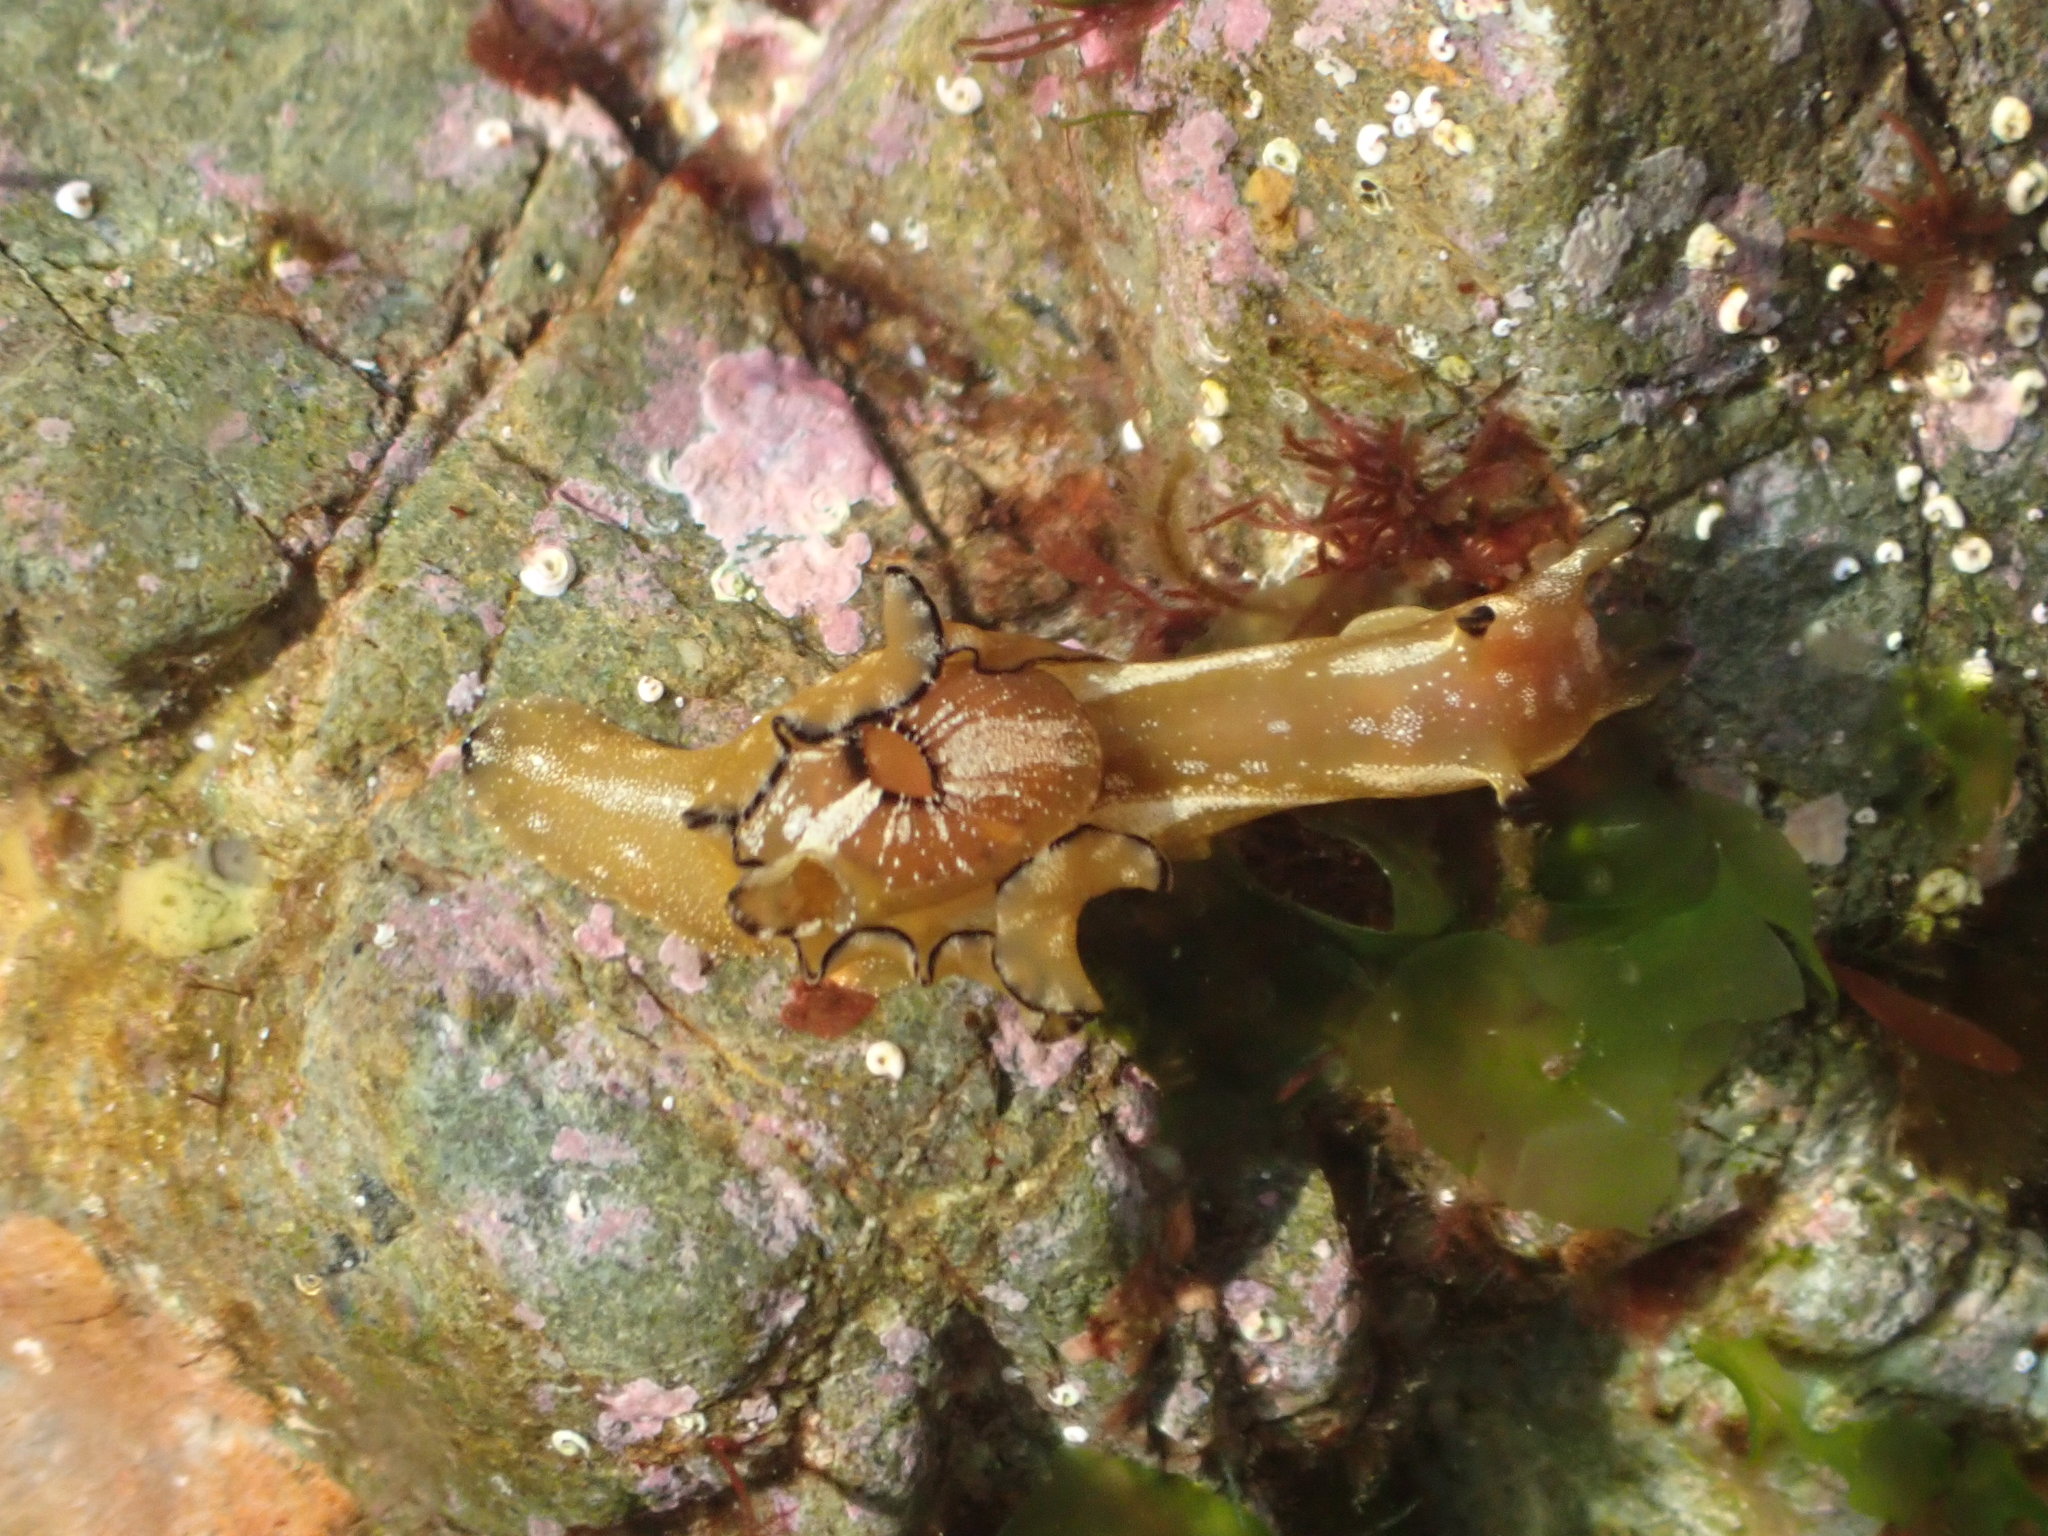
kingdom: Animalia
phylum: Mollusca
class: Gastropoda
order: Aplysiida
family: Aplysiidae
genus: Aplysia
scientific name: Aplysia concava
